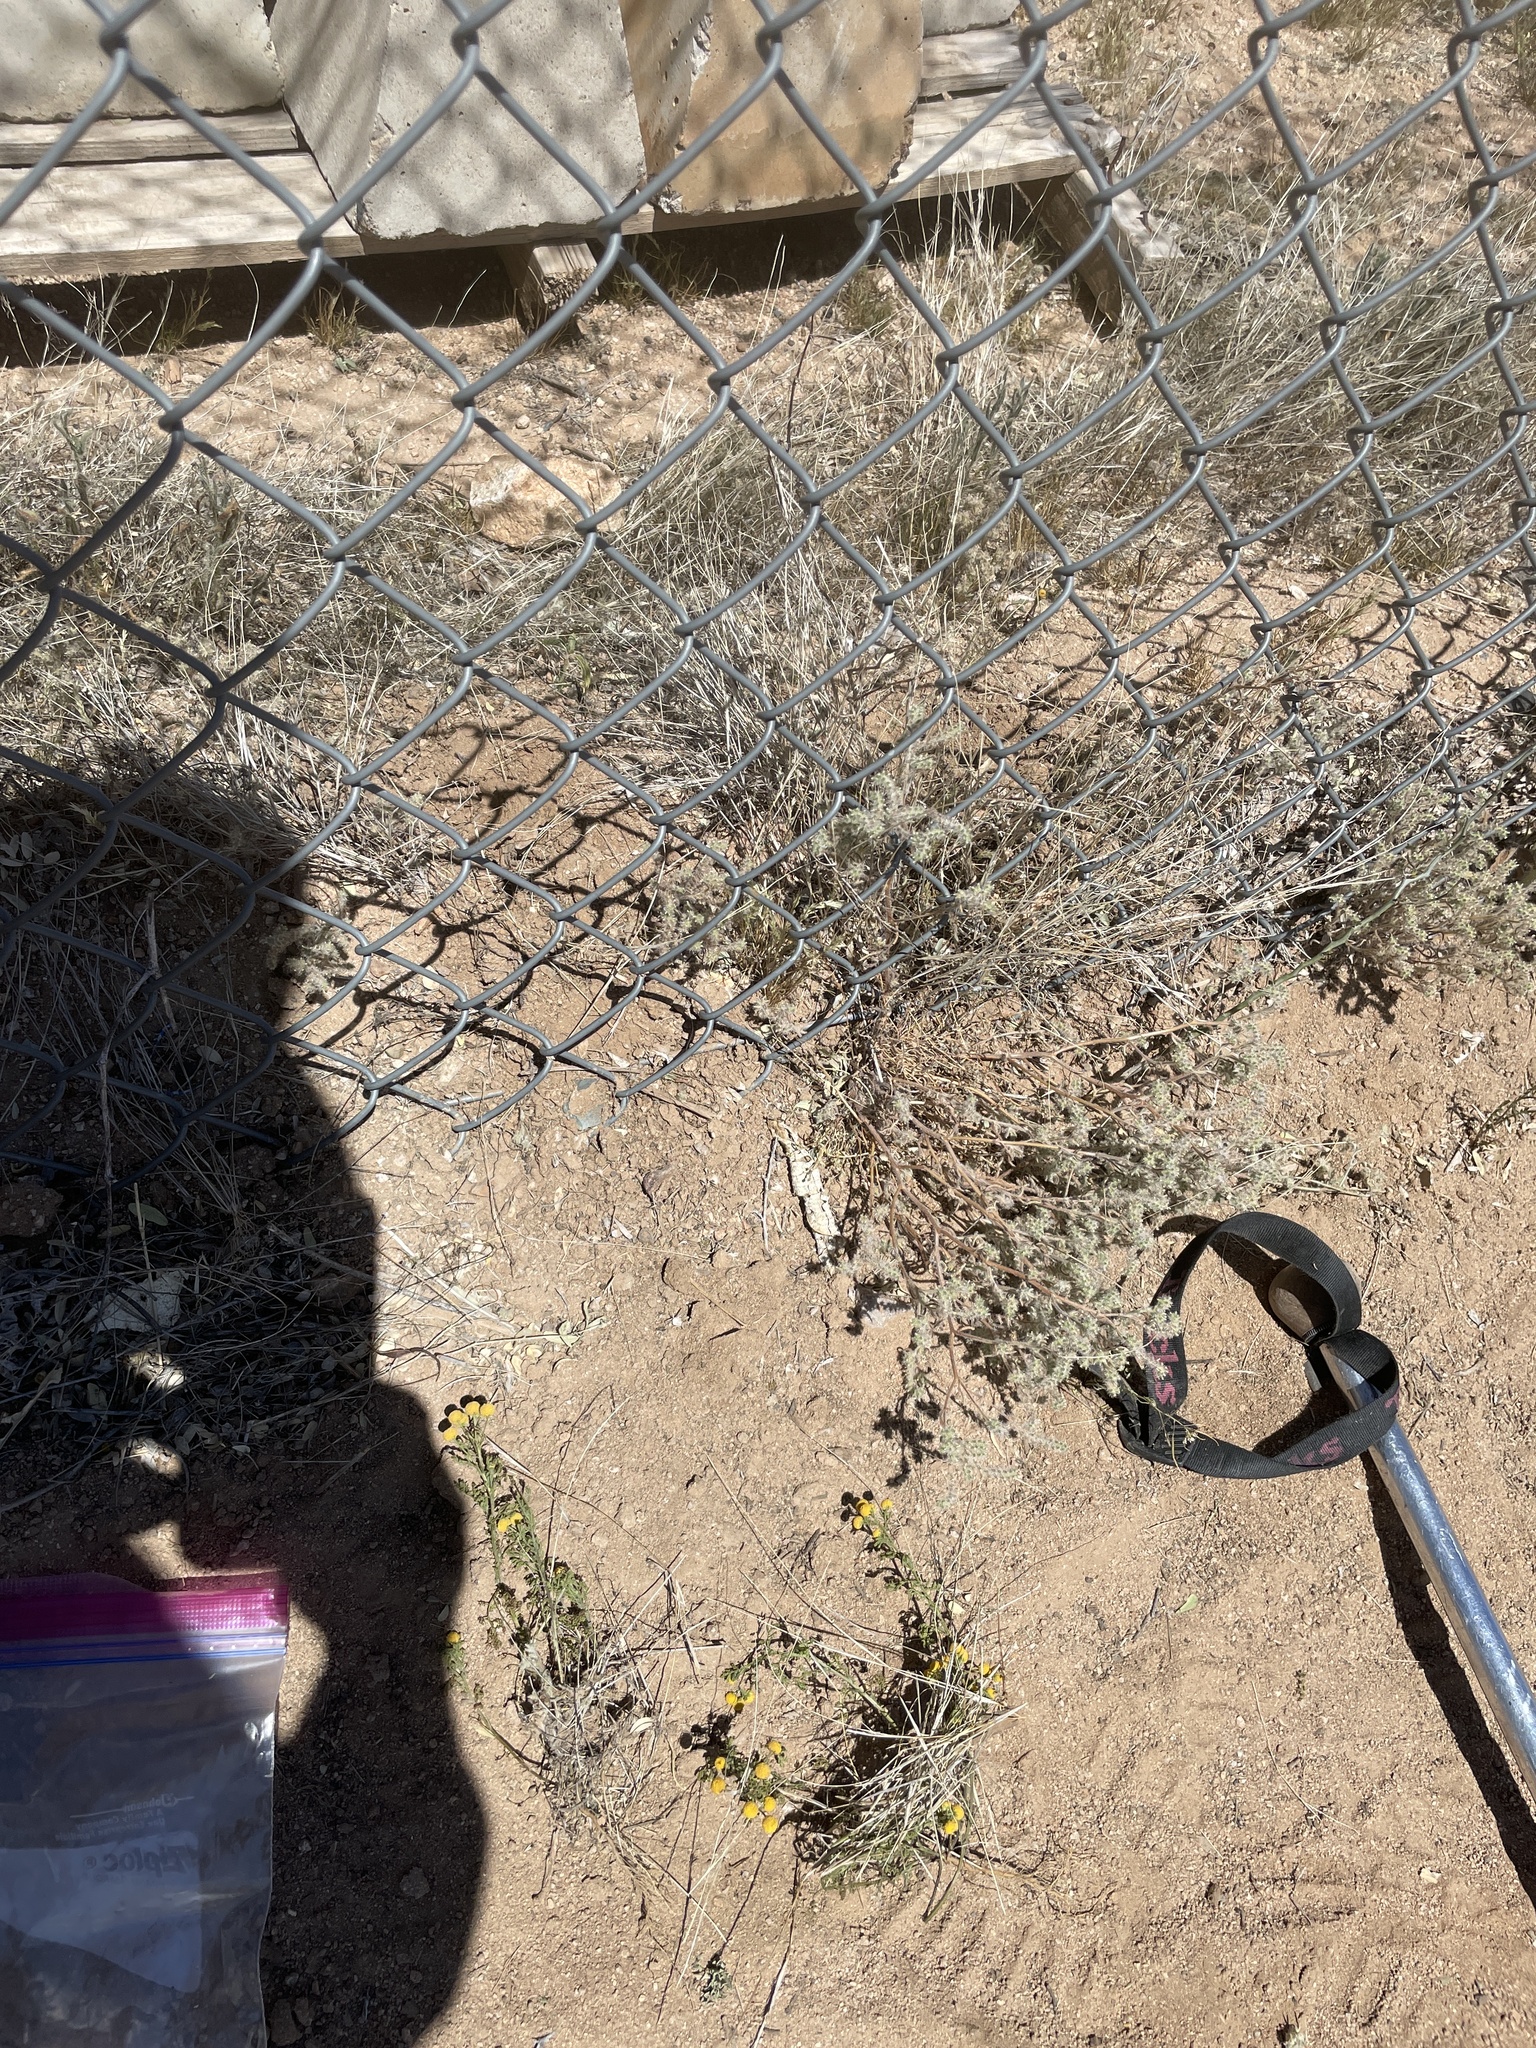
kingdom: Plantae
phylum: Tracheophyta
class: Magnoliopsida
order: Asterales
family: Asteraceae
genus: Oncosiphon
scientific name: Oncosiphon pilulifer
